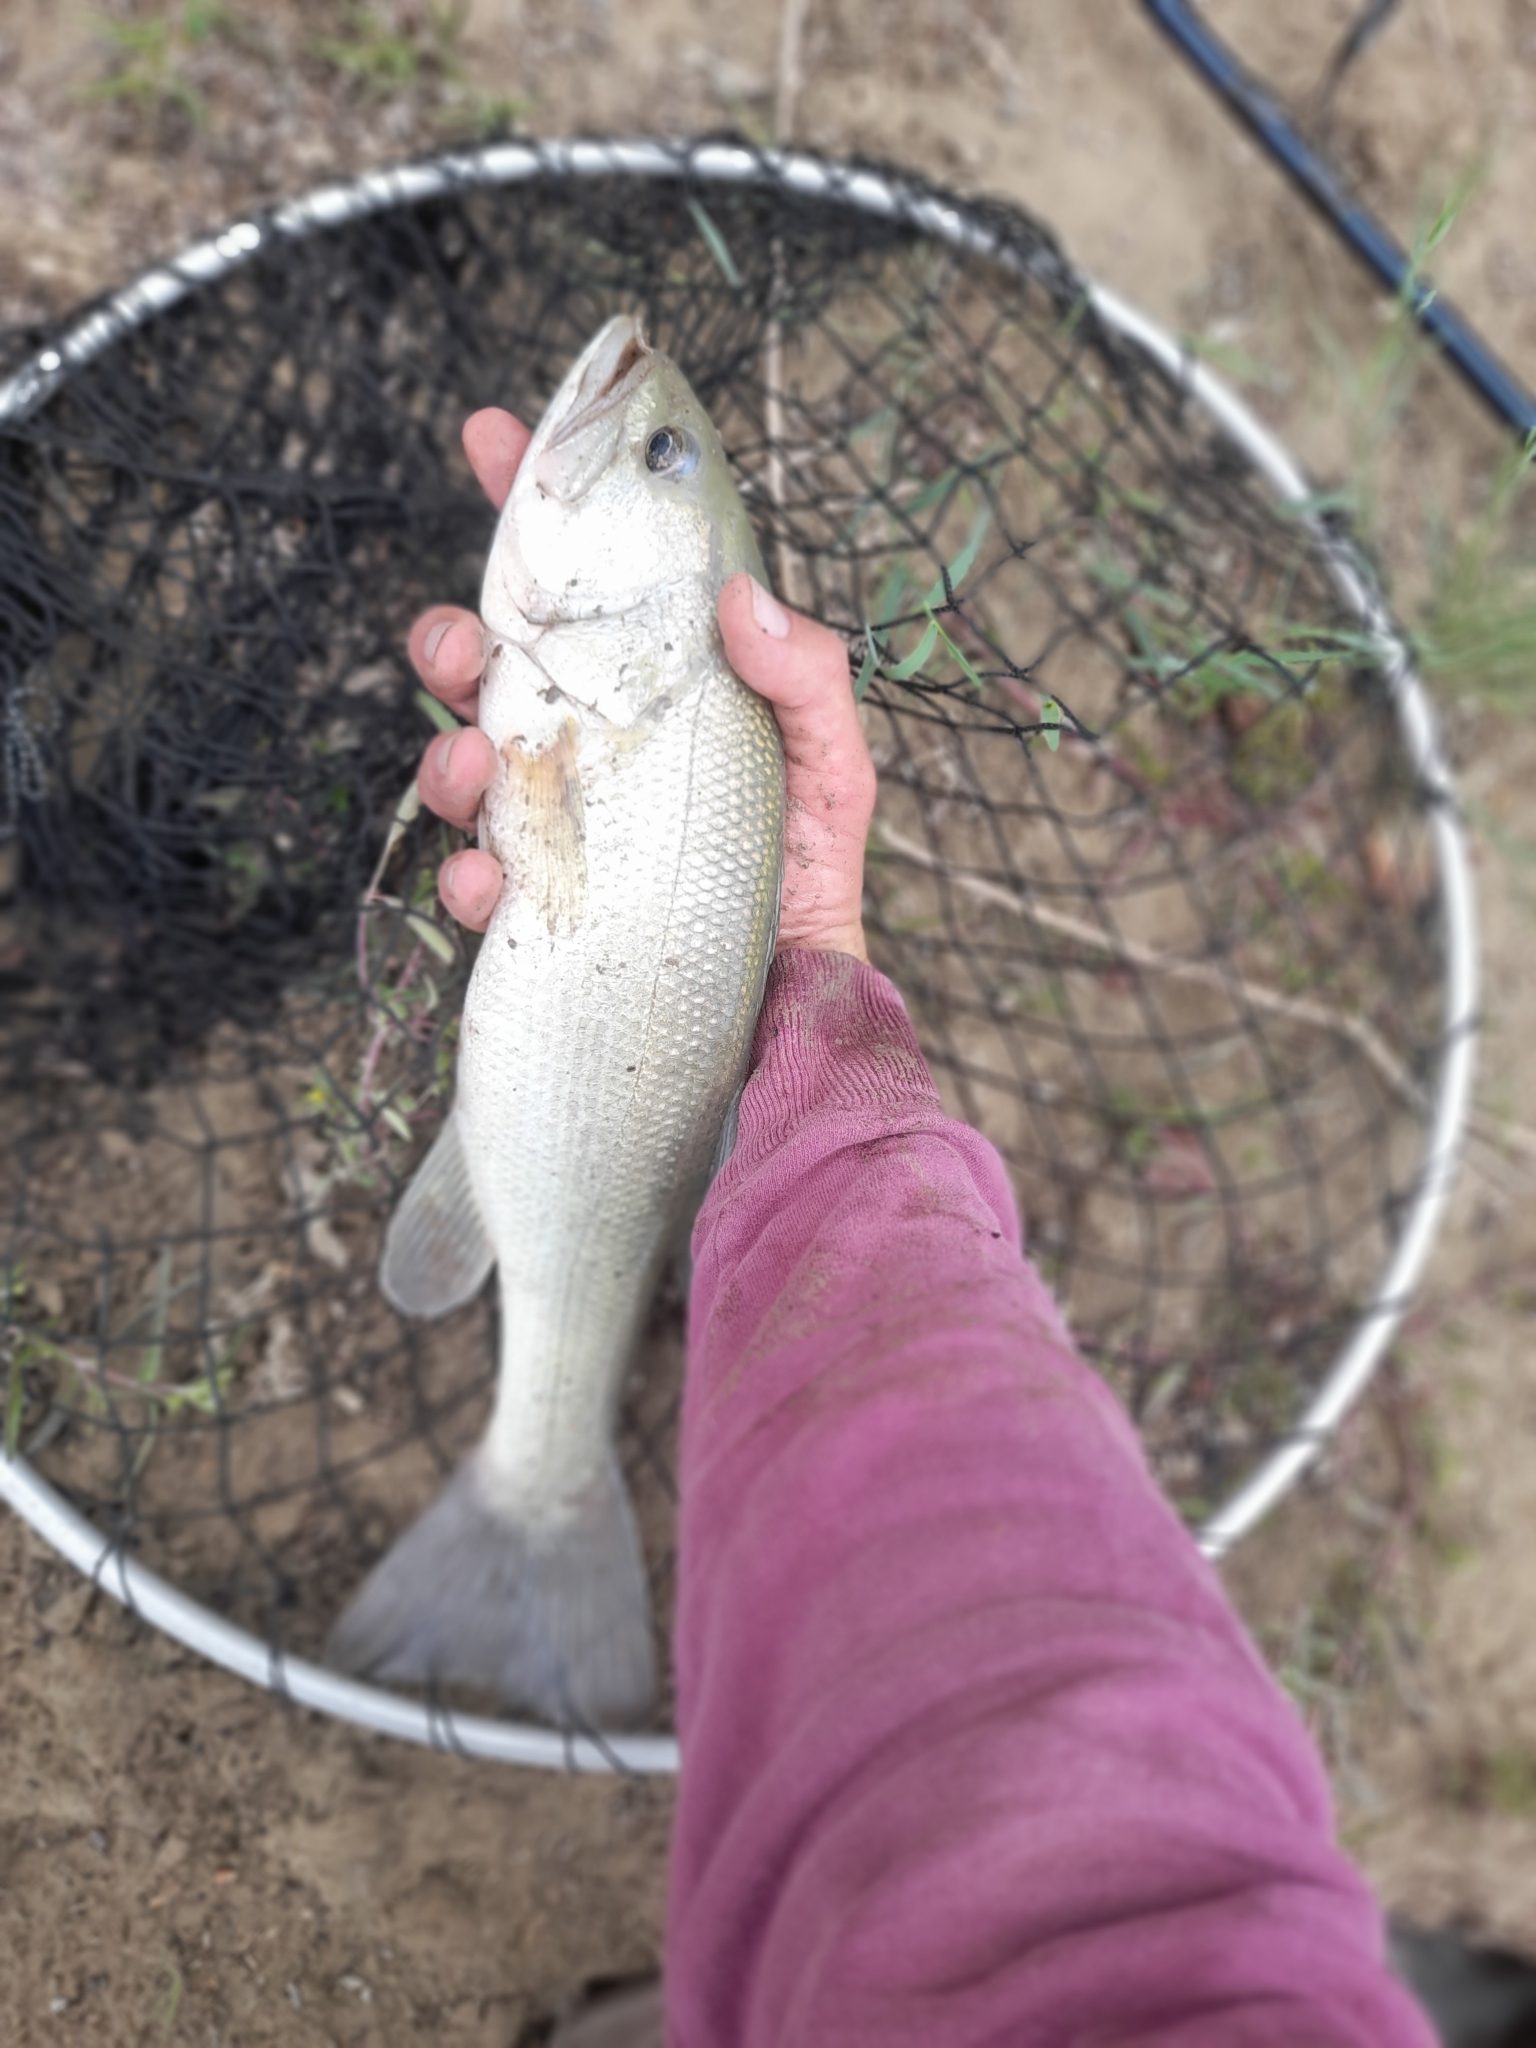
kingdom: Animalia
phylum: Chordata
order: Perciformes
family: Centrarchidae
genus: Micropterus
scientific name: Micropterus
